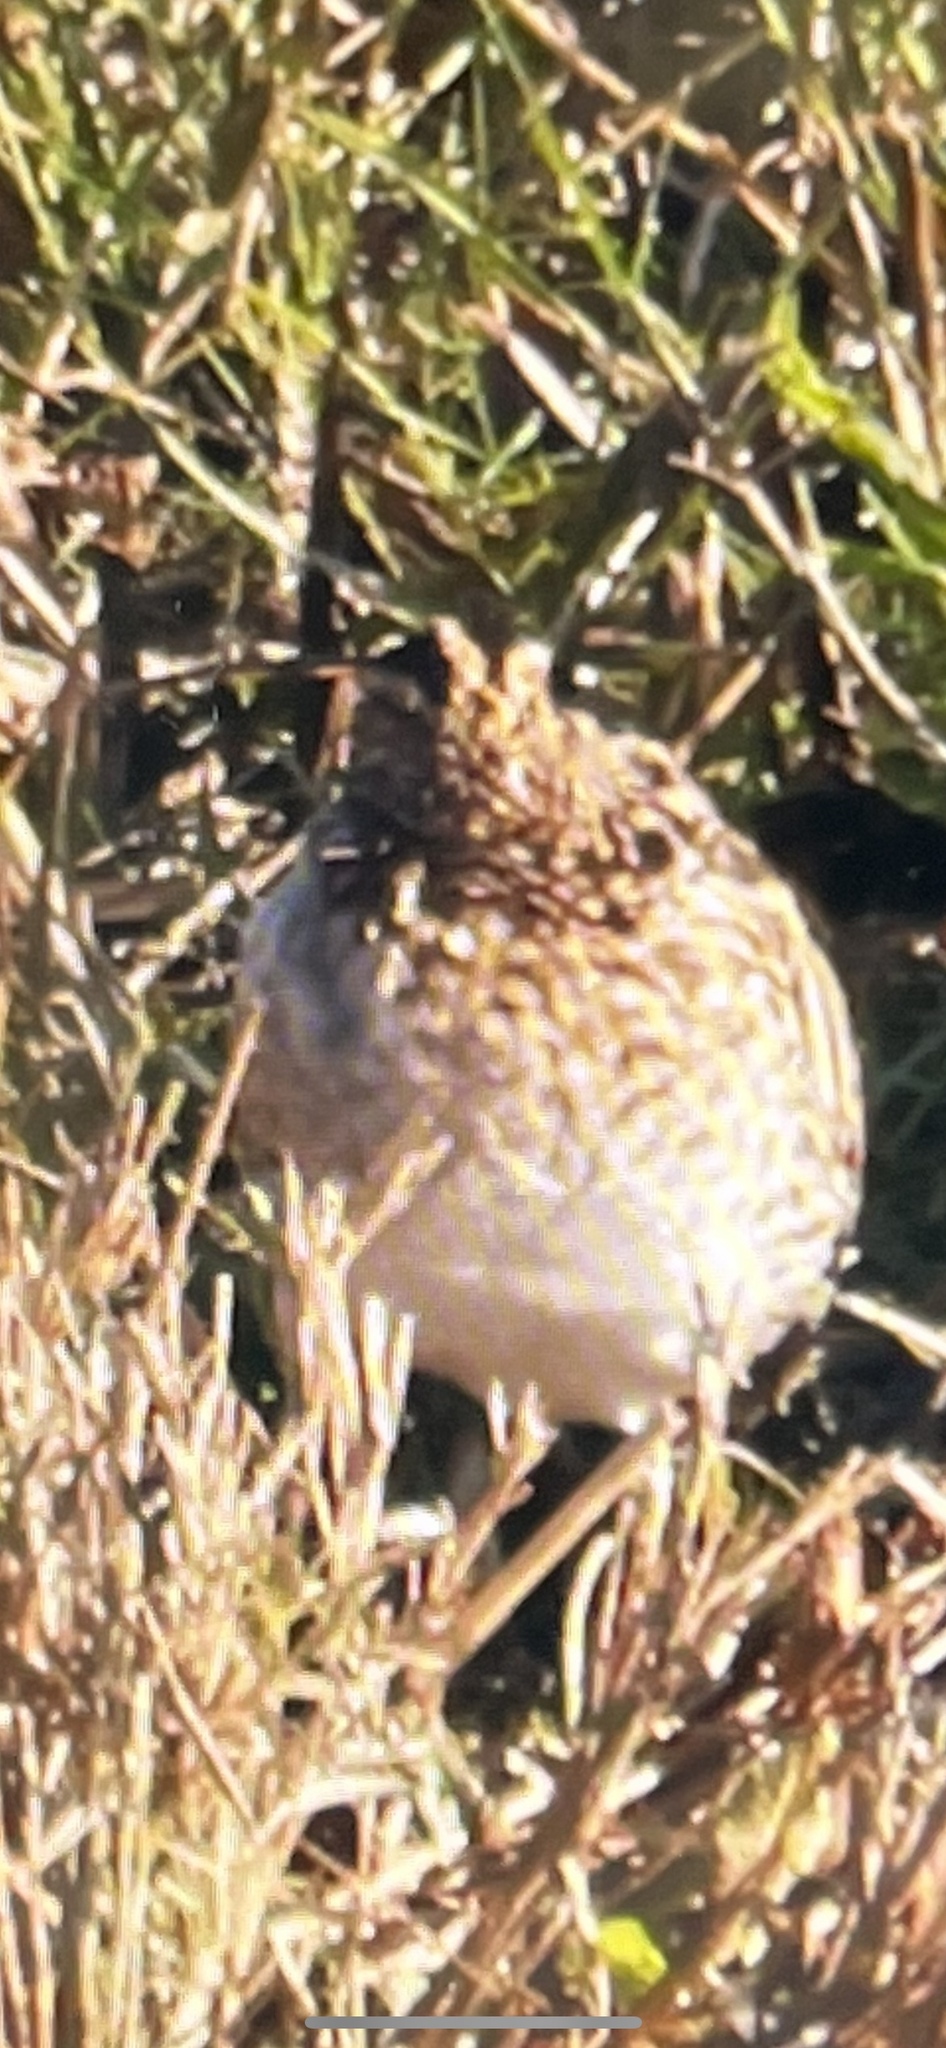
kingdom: Animalia
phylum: Chordata
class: Aves
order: Charadriiformes
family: Scolopacidae
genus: Gallinago
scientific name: Gallinago gallinago
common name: Common snipe
